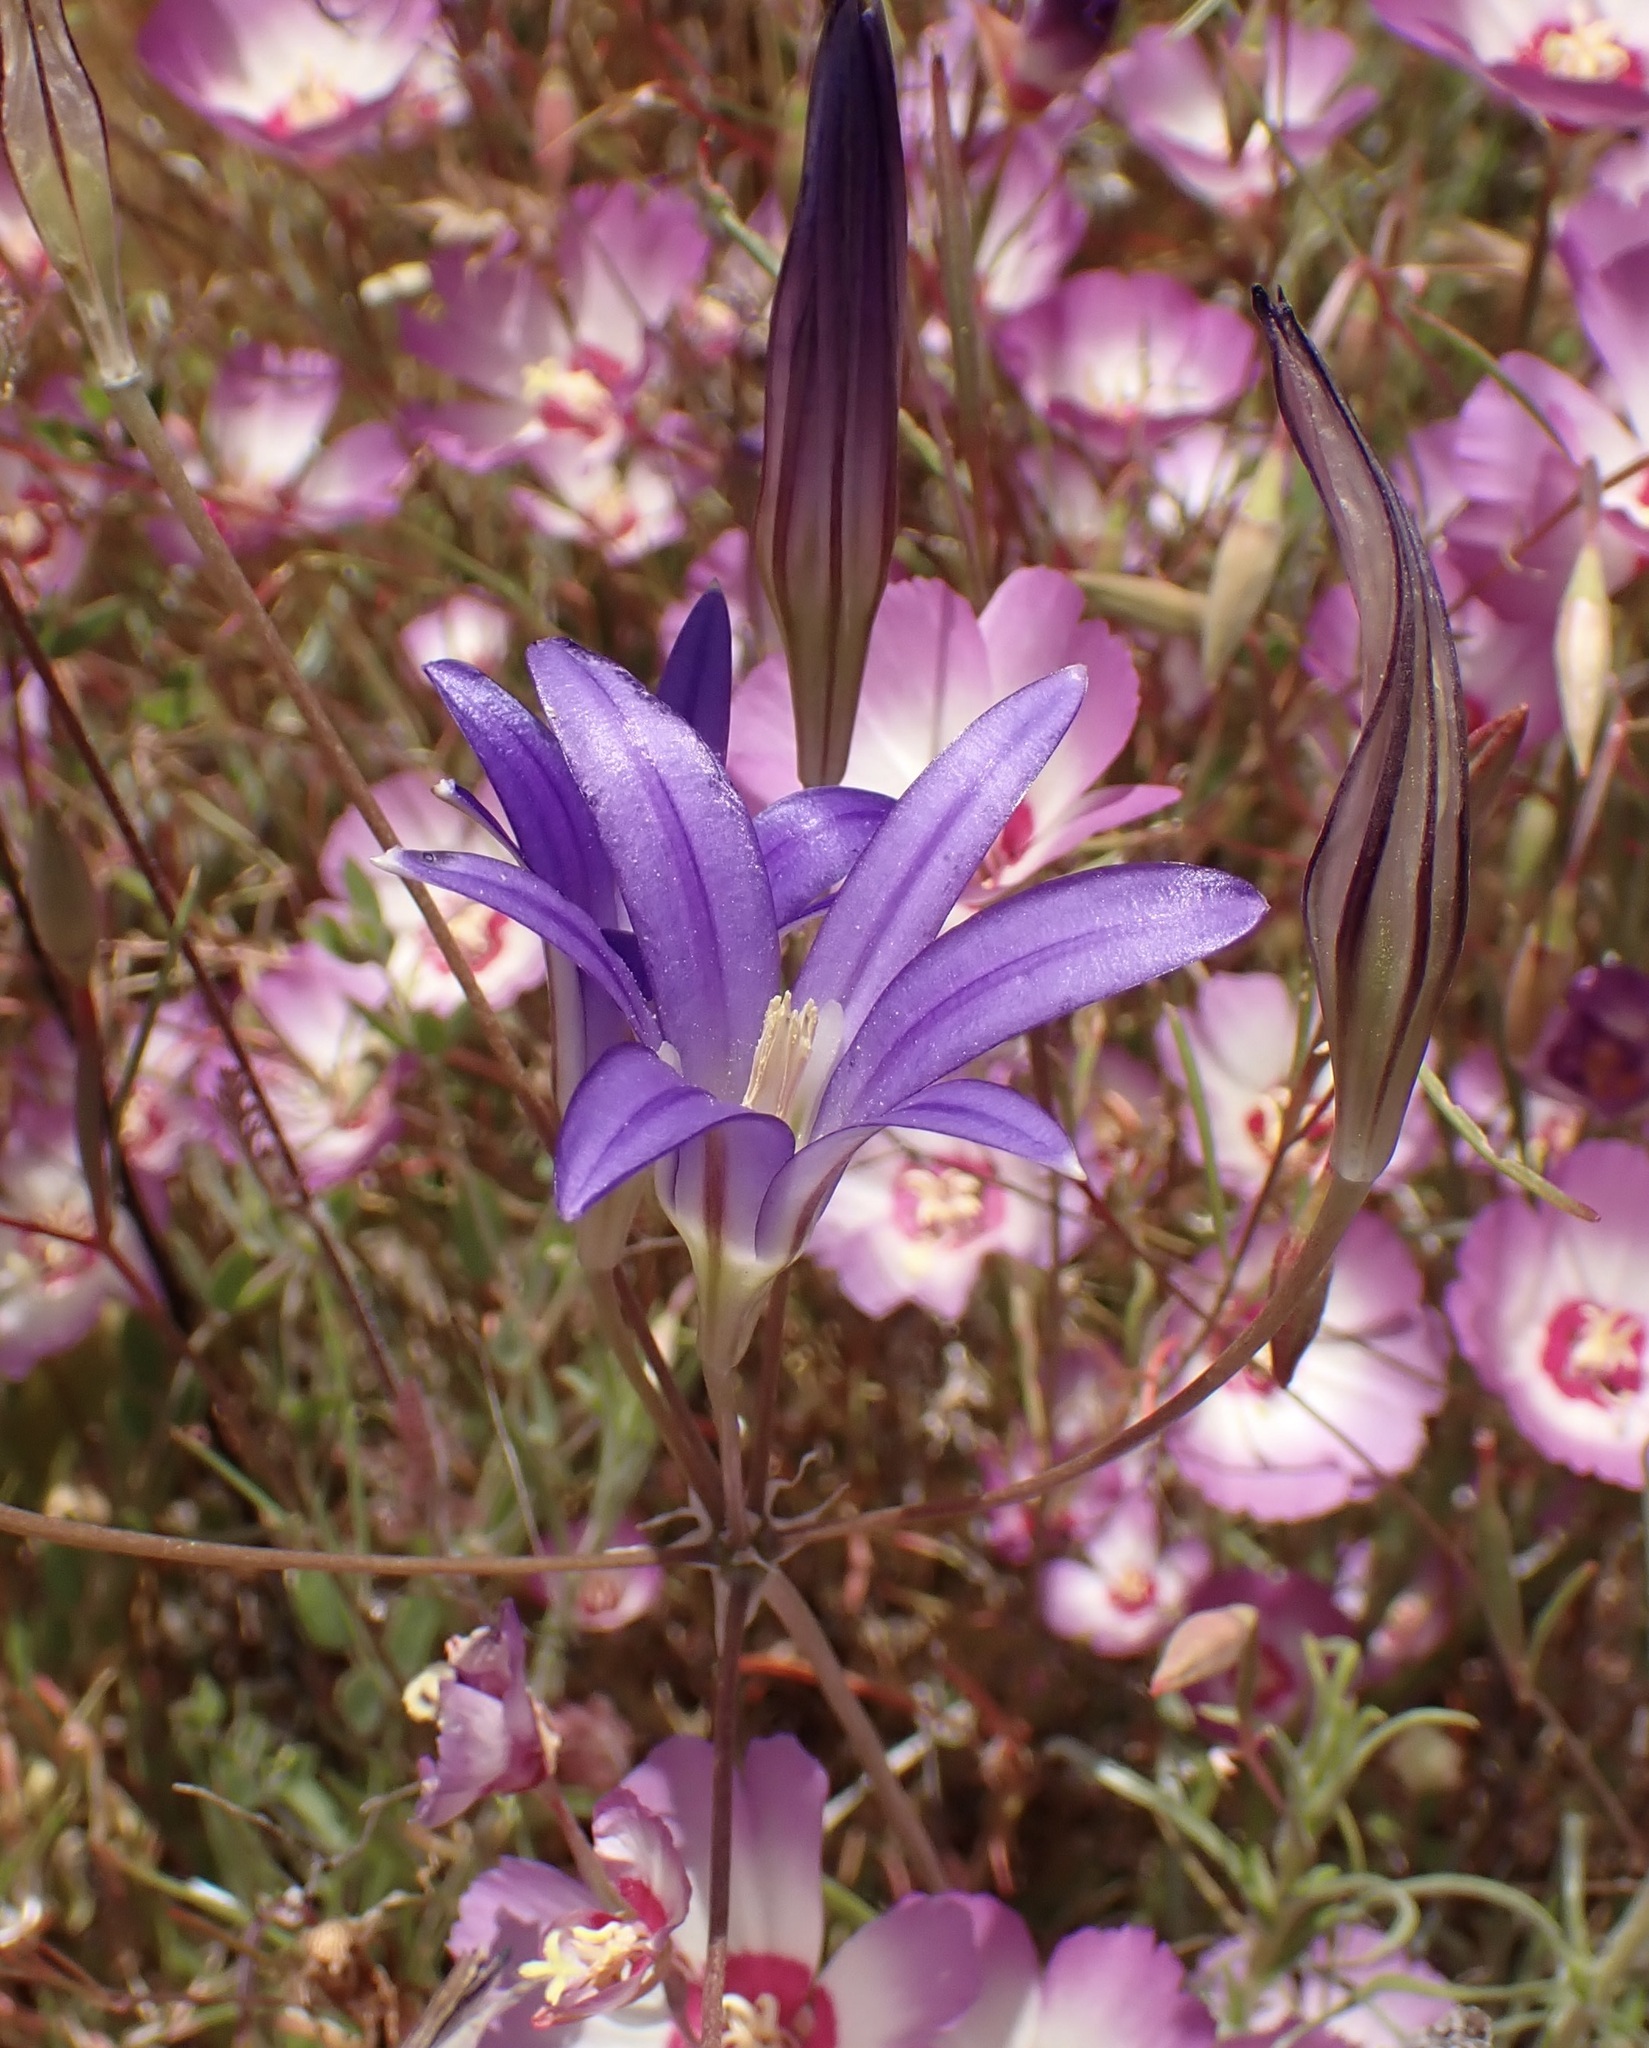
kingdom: Plantae
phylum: Tracheophyta
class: Liliopsida
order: Asparagales
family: Asparagaceae
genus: Brodiaea
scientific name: Brodiaea elegans
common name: Elegant cluster-lily
